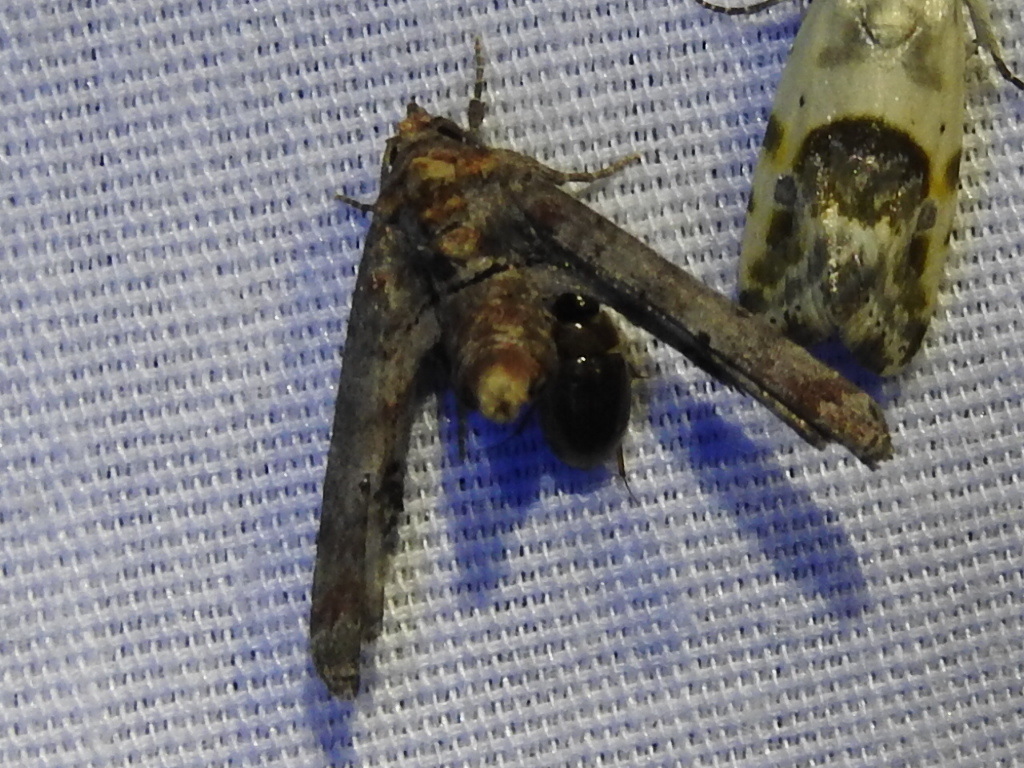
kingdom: Animalia
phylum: Arthropoda
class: Insecta
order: Lepidoptera
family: Euteliidae
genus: Marathyssa
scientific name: Marathyssa inficita
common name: Dark marathyssa moth
